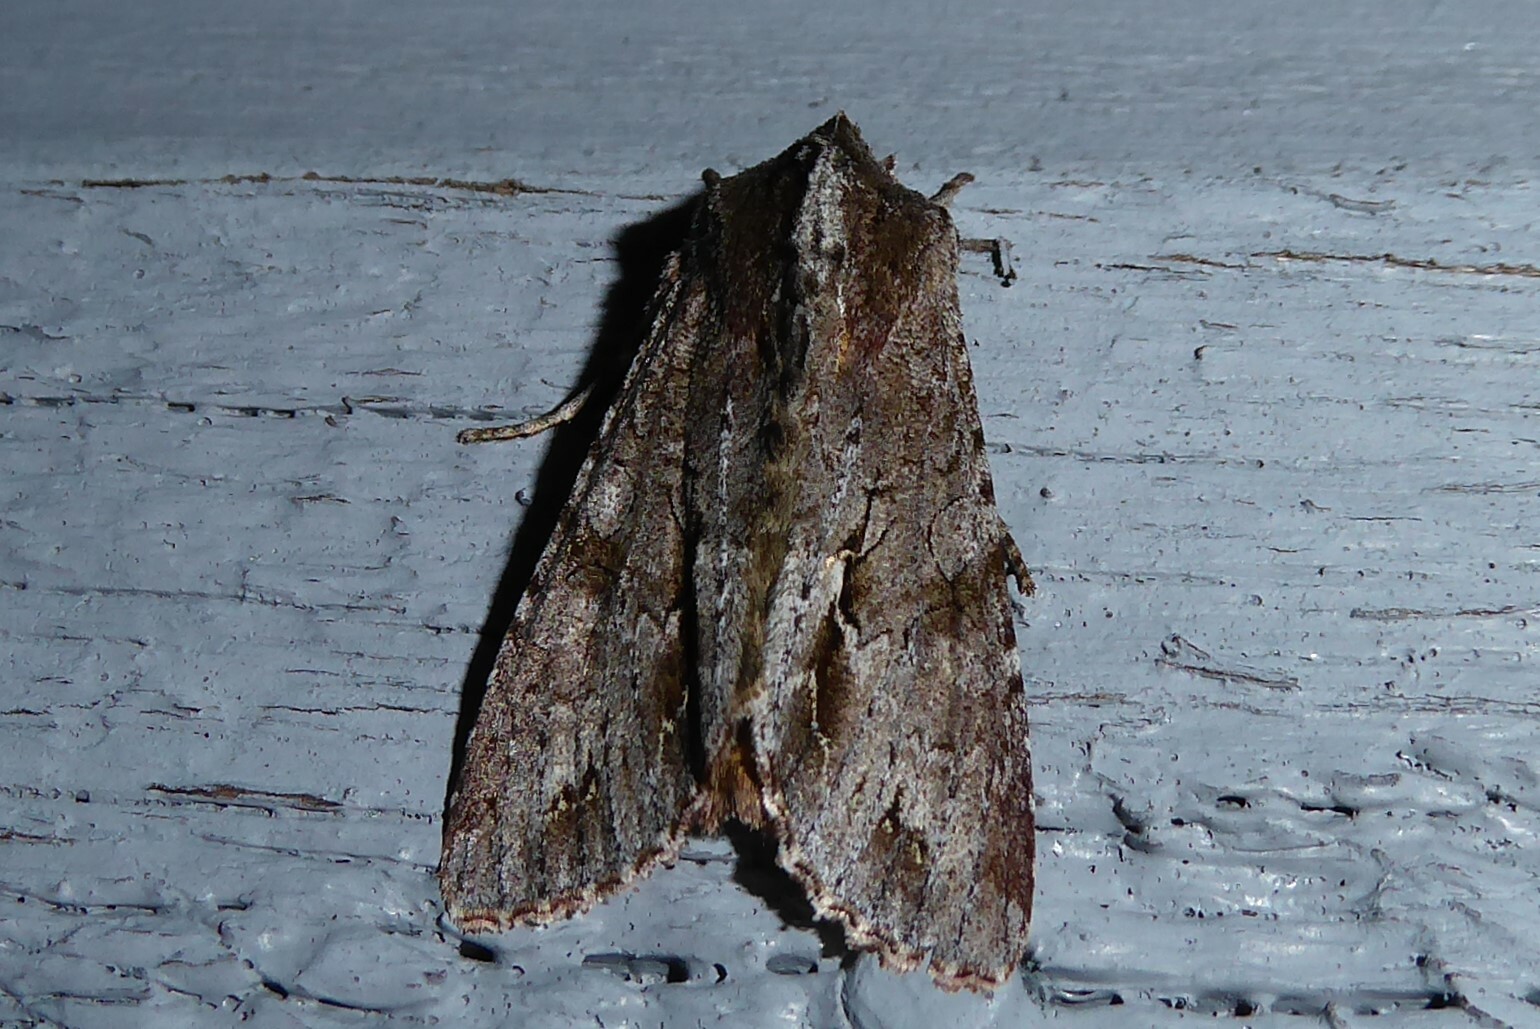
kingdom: Animalia
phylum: Arthropoda
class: Insecta
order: Lepidoptera
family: Noctuidae
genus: Ichneutica
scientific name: Ichneutica
